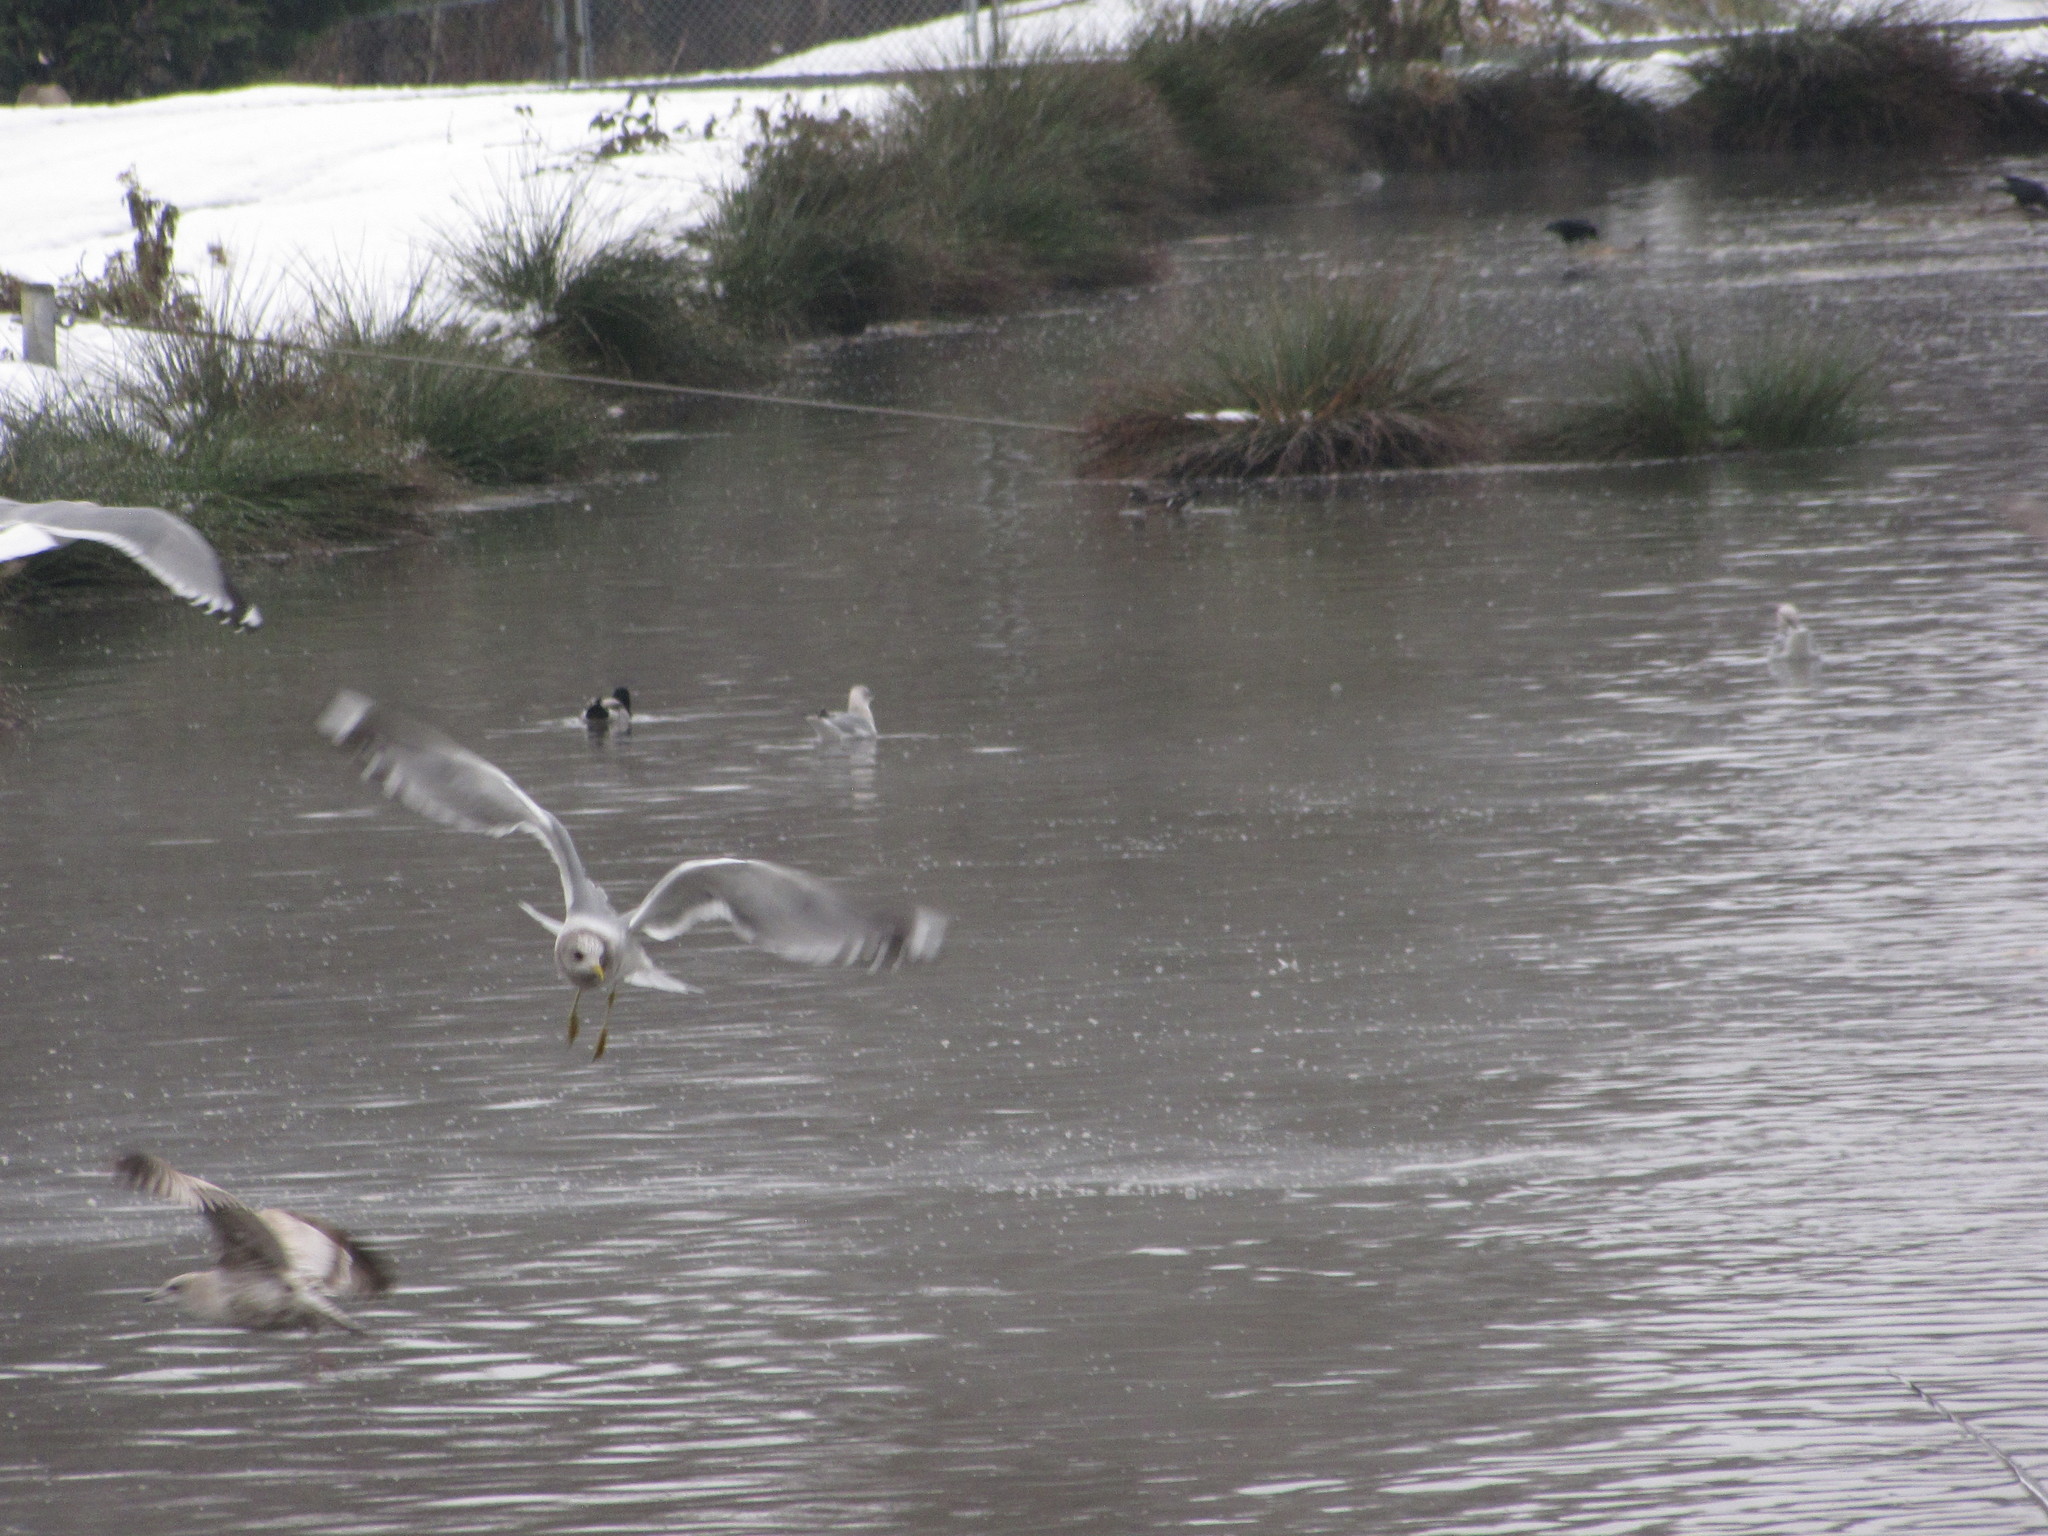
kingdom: Animalia
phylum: Chordata
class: Aves
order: Charadriiformes
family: Laridae
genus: Larus
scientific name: Larus brachyrhynchus
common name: Short-billed gull
